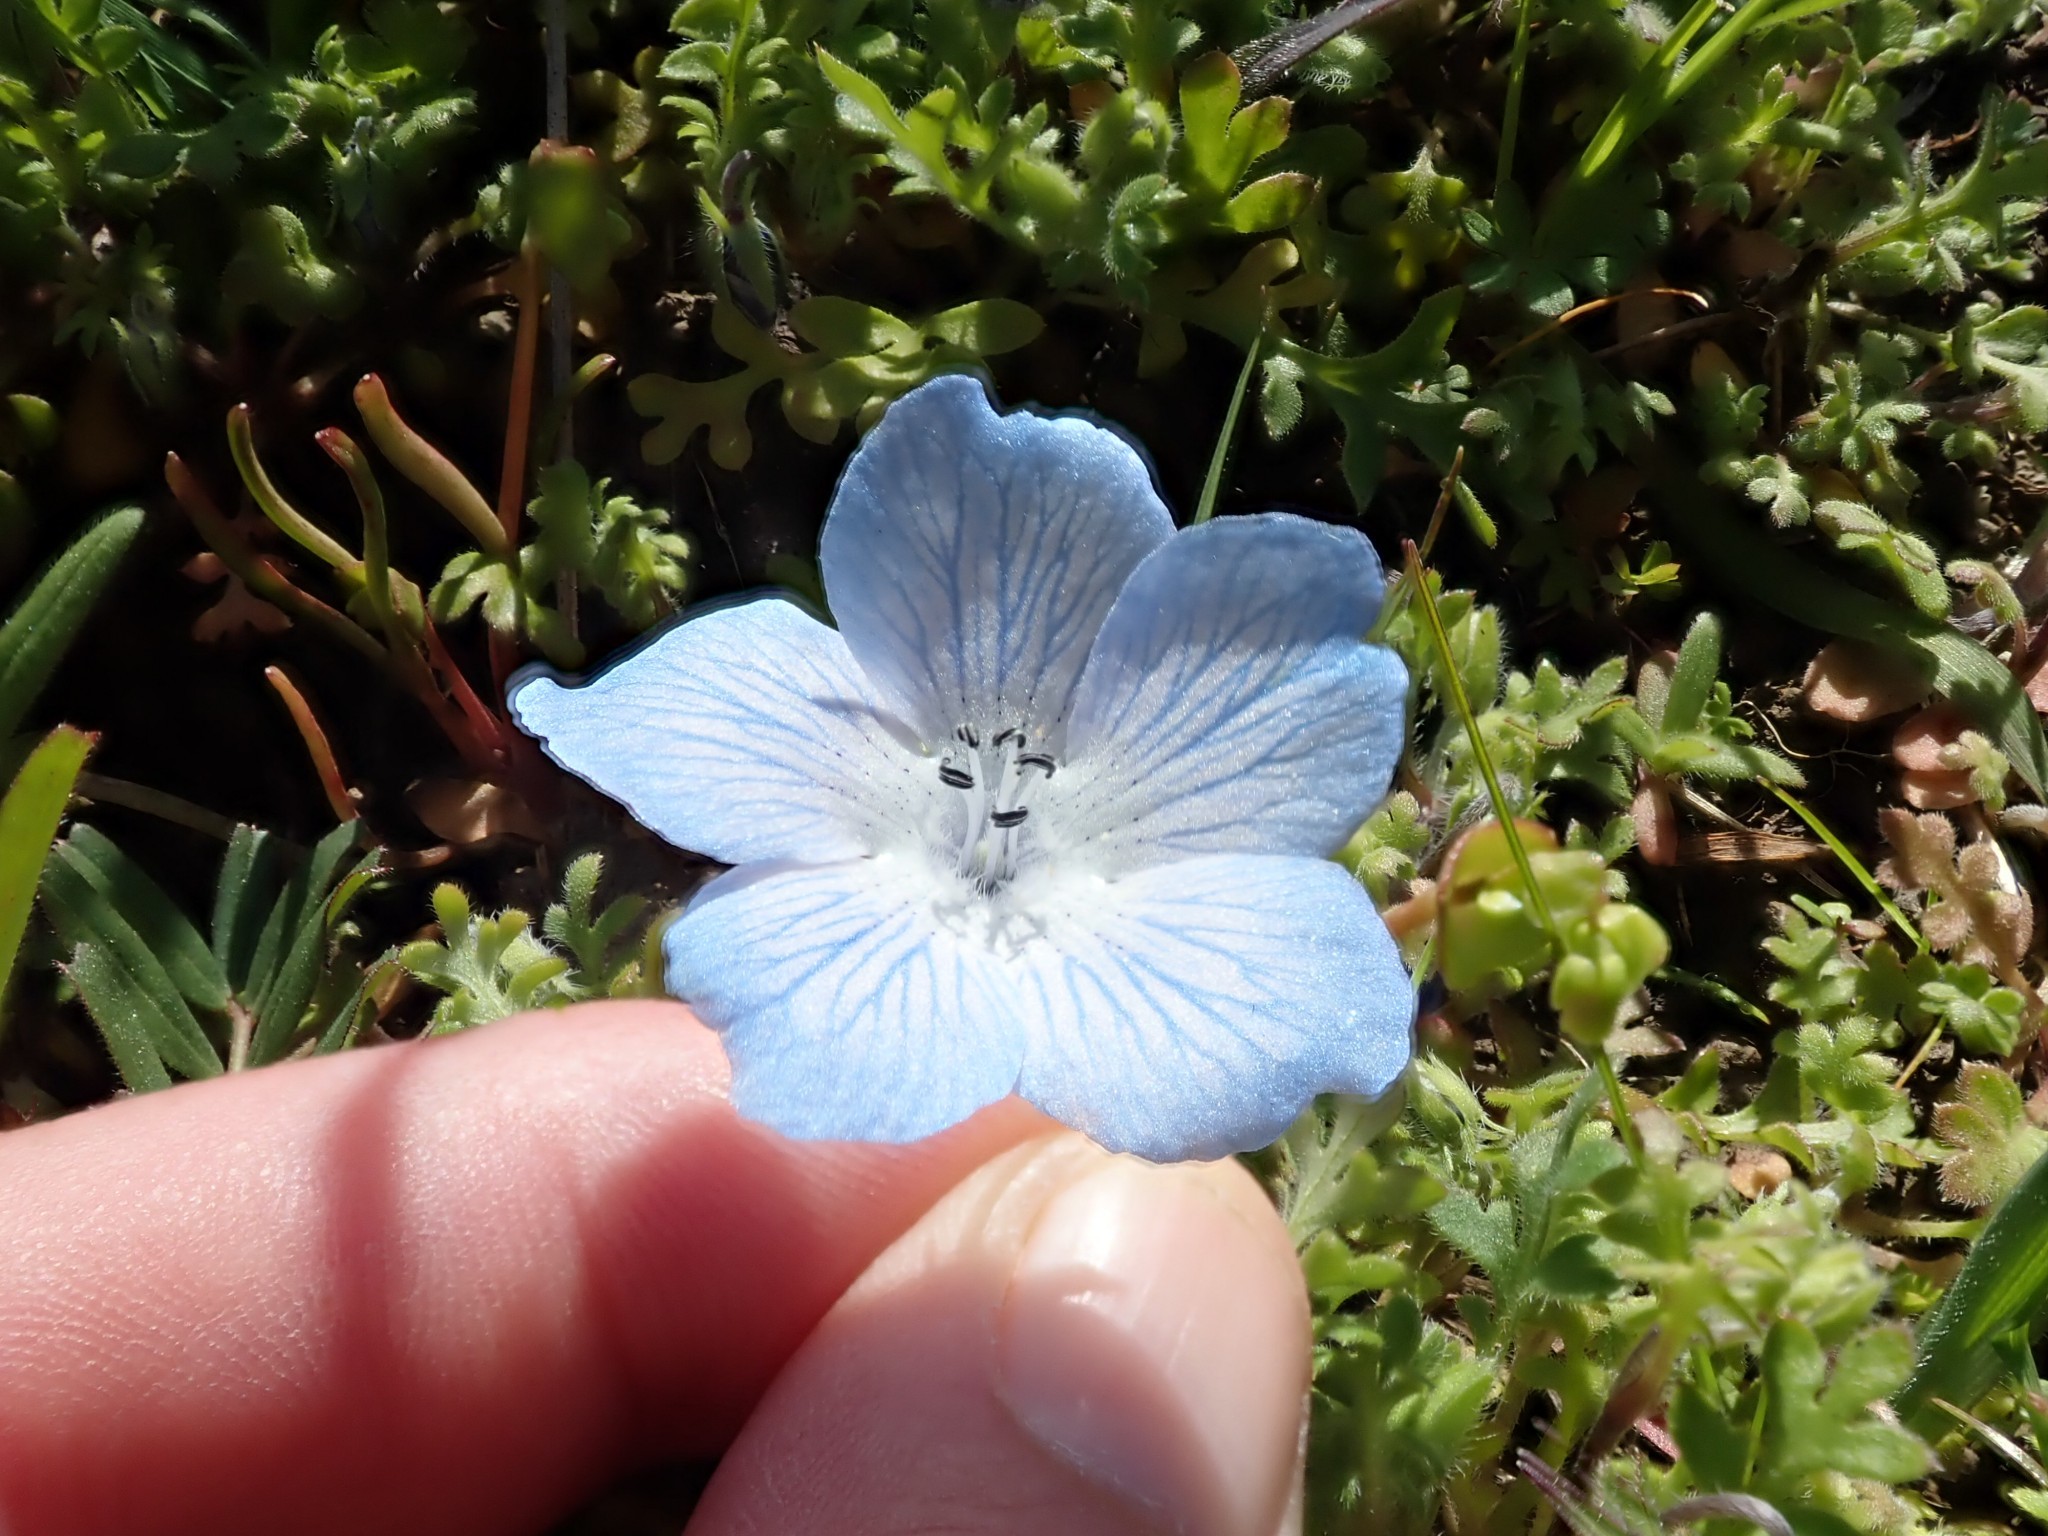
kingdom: Plantae
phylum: Tracheophyta
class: Magnoliopsida
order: Boraginales
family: Hydrophyllaceae
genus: Nemophila
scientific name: Nemophila menziesii
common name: Baby's-blue-eyes
